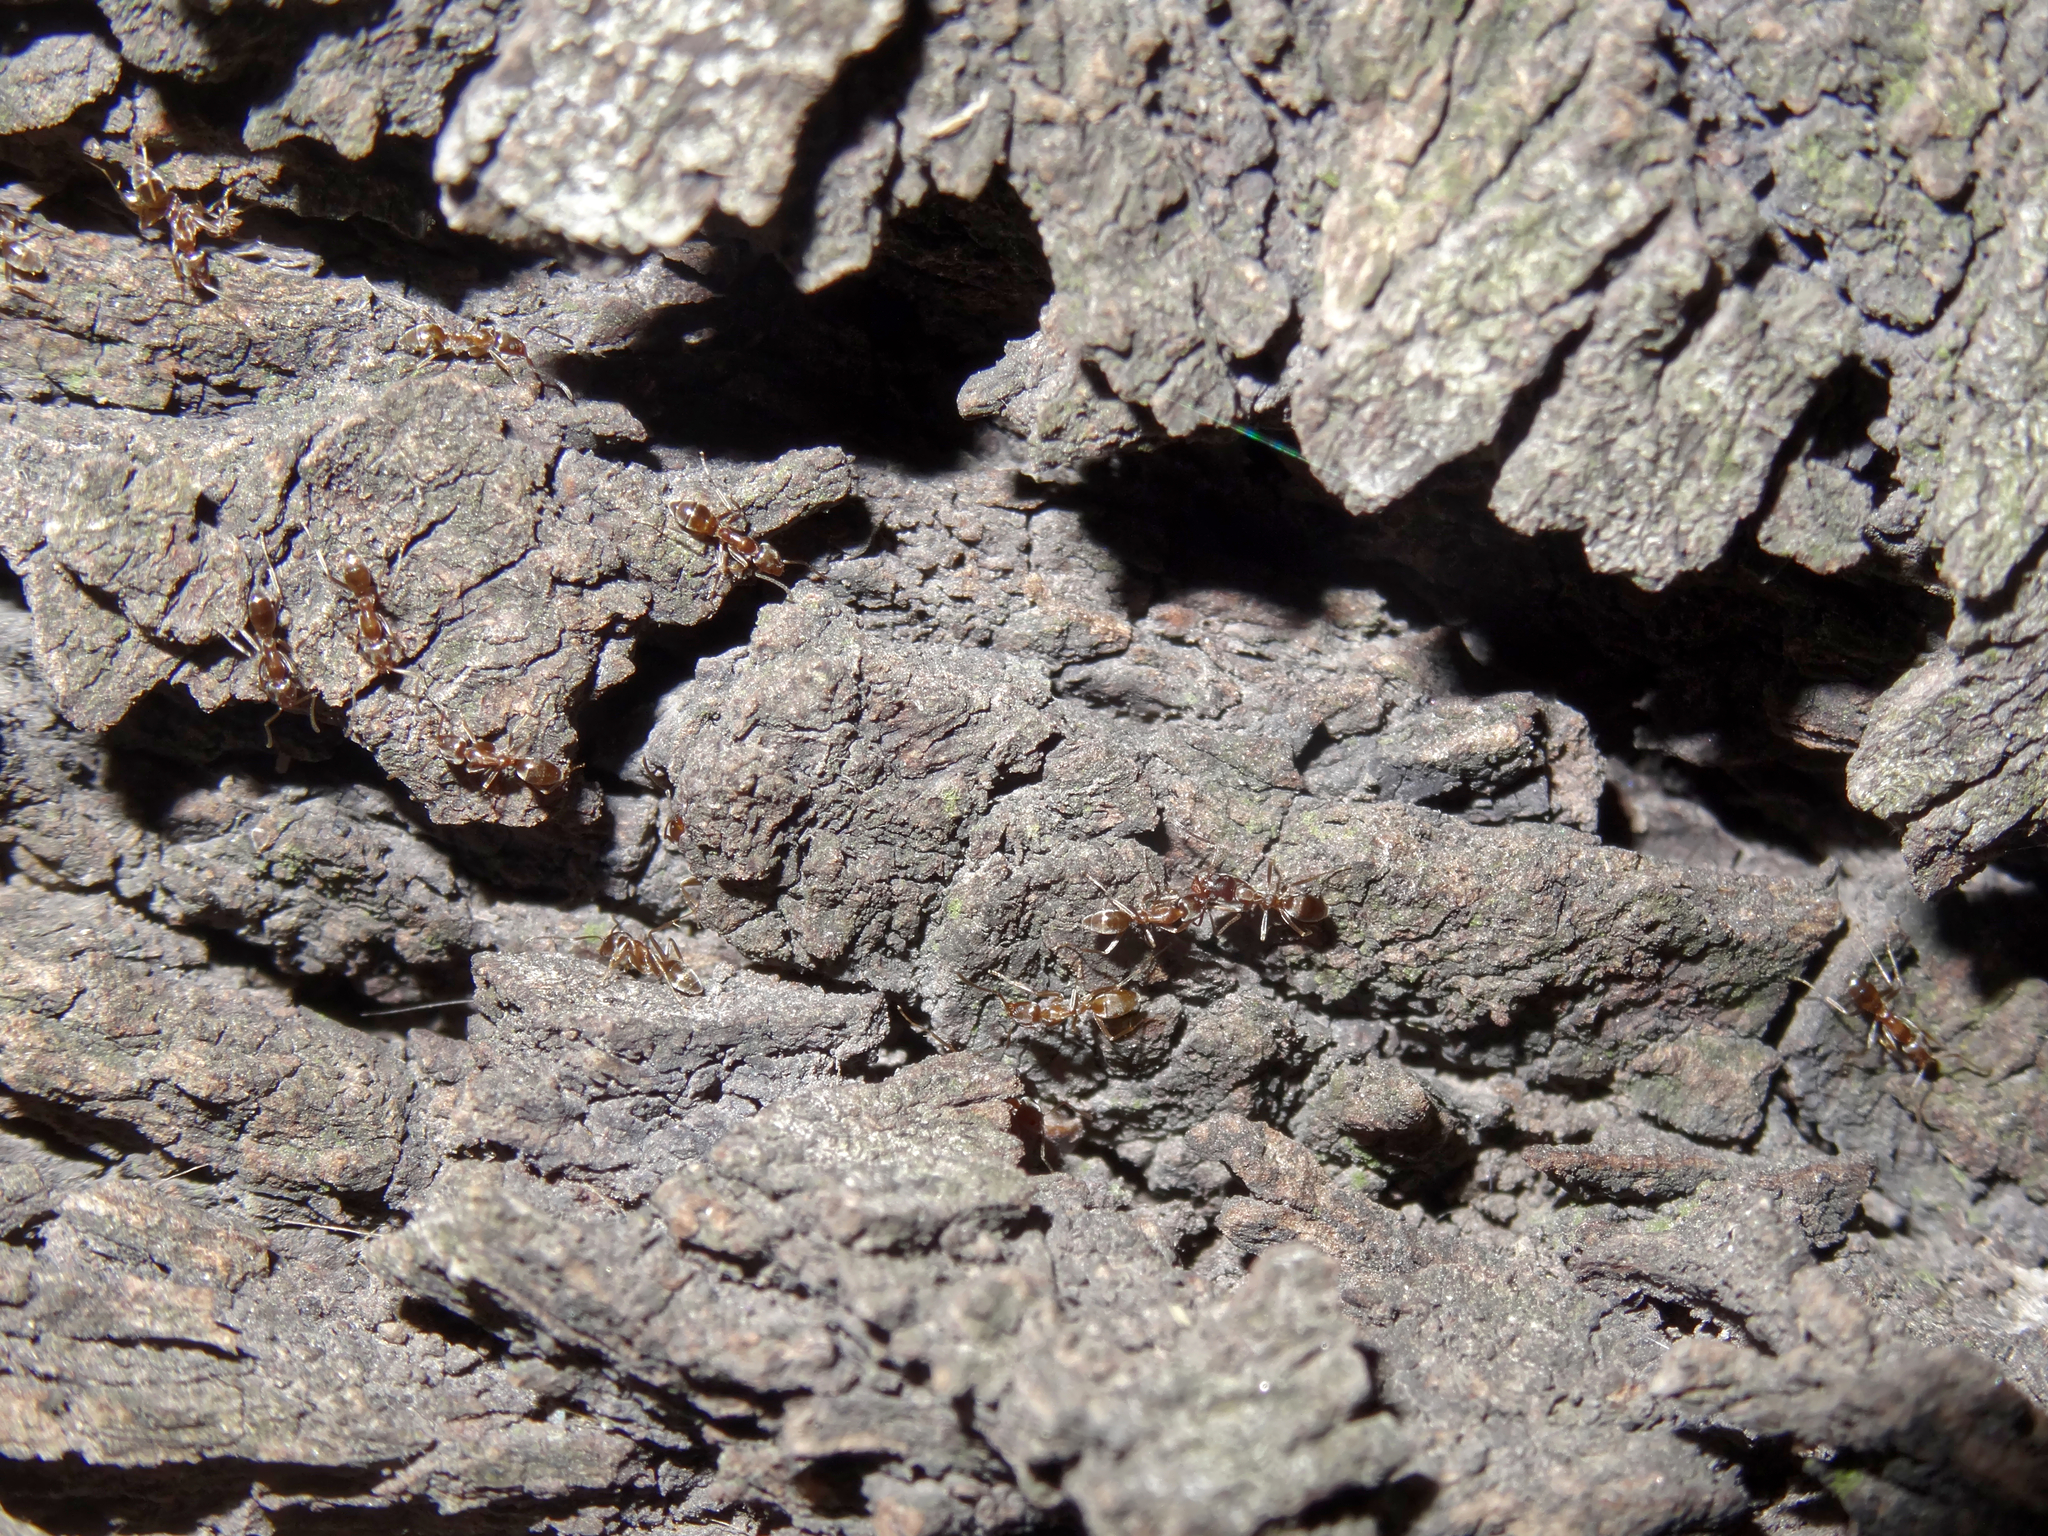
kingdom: Animalia
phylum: Arthropoda
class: Insecta
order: Hymenoptera
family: Formicidae
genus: Linepithema
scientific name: Linepithema humile
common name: Argentine ant
